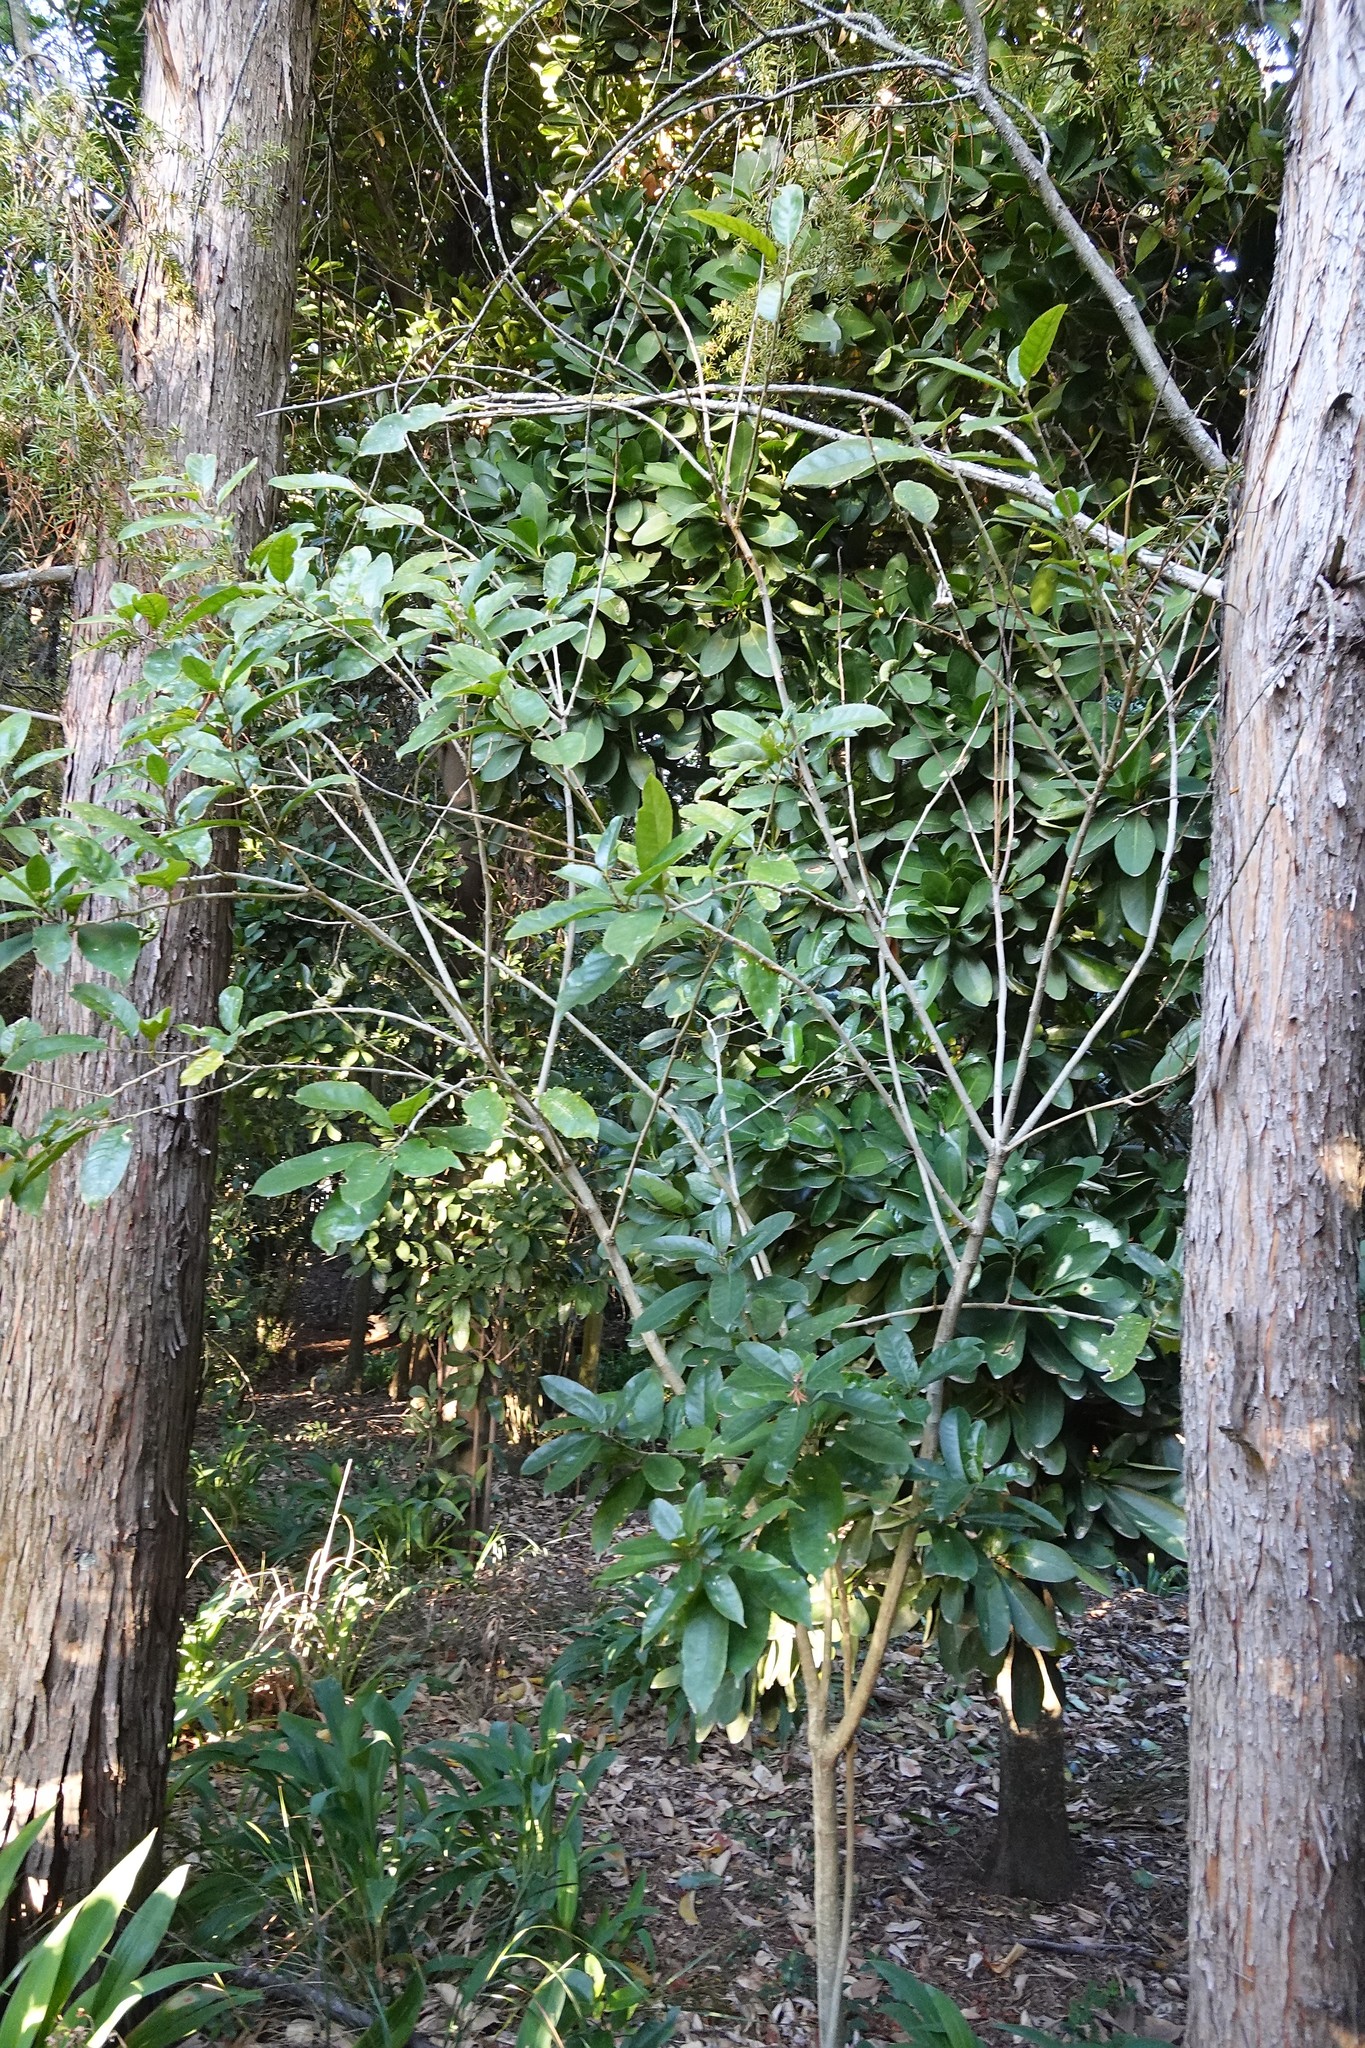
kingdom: Plantae
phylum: Tracheophyta
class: Magnoliopsida
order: Malpighiales
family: Violaceae
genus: Melicytus
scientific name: Melicytus ramiflorus
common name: Mahoe
